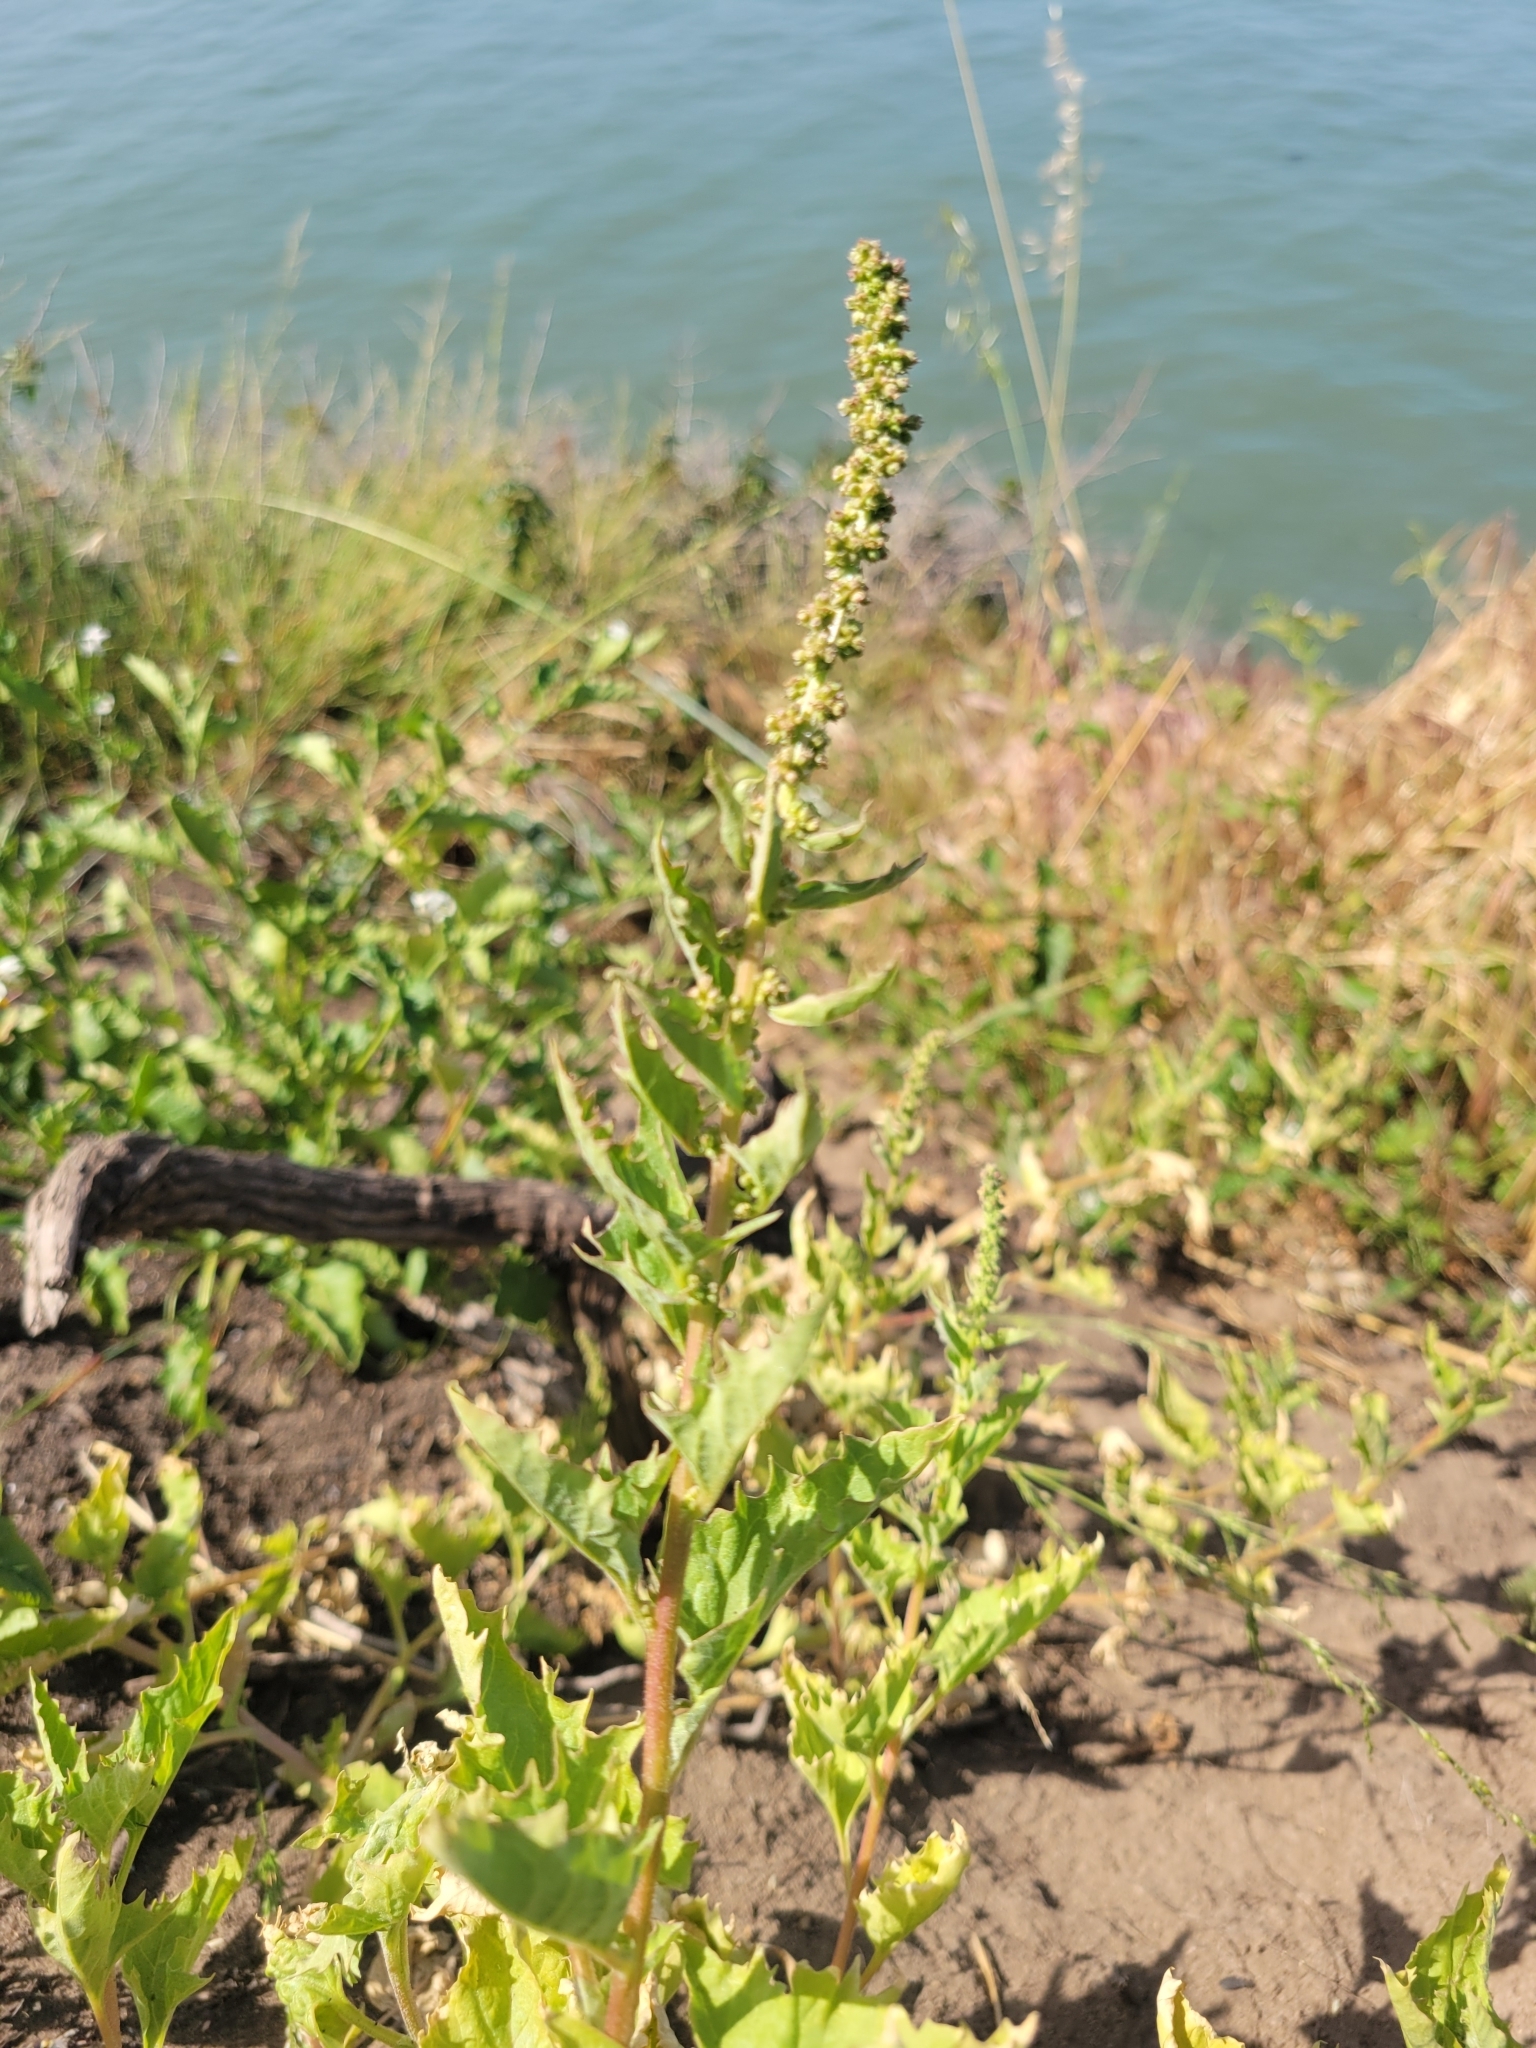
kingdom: Plantae
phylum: Tracheophyta
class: Magnoliopsida
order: Caryophyllales
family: Amaranthaceae
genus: Blitum
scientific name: Blitum californicum
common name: California goosefoot
